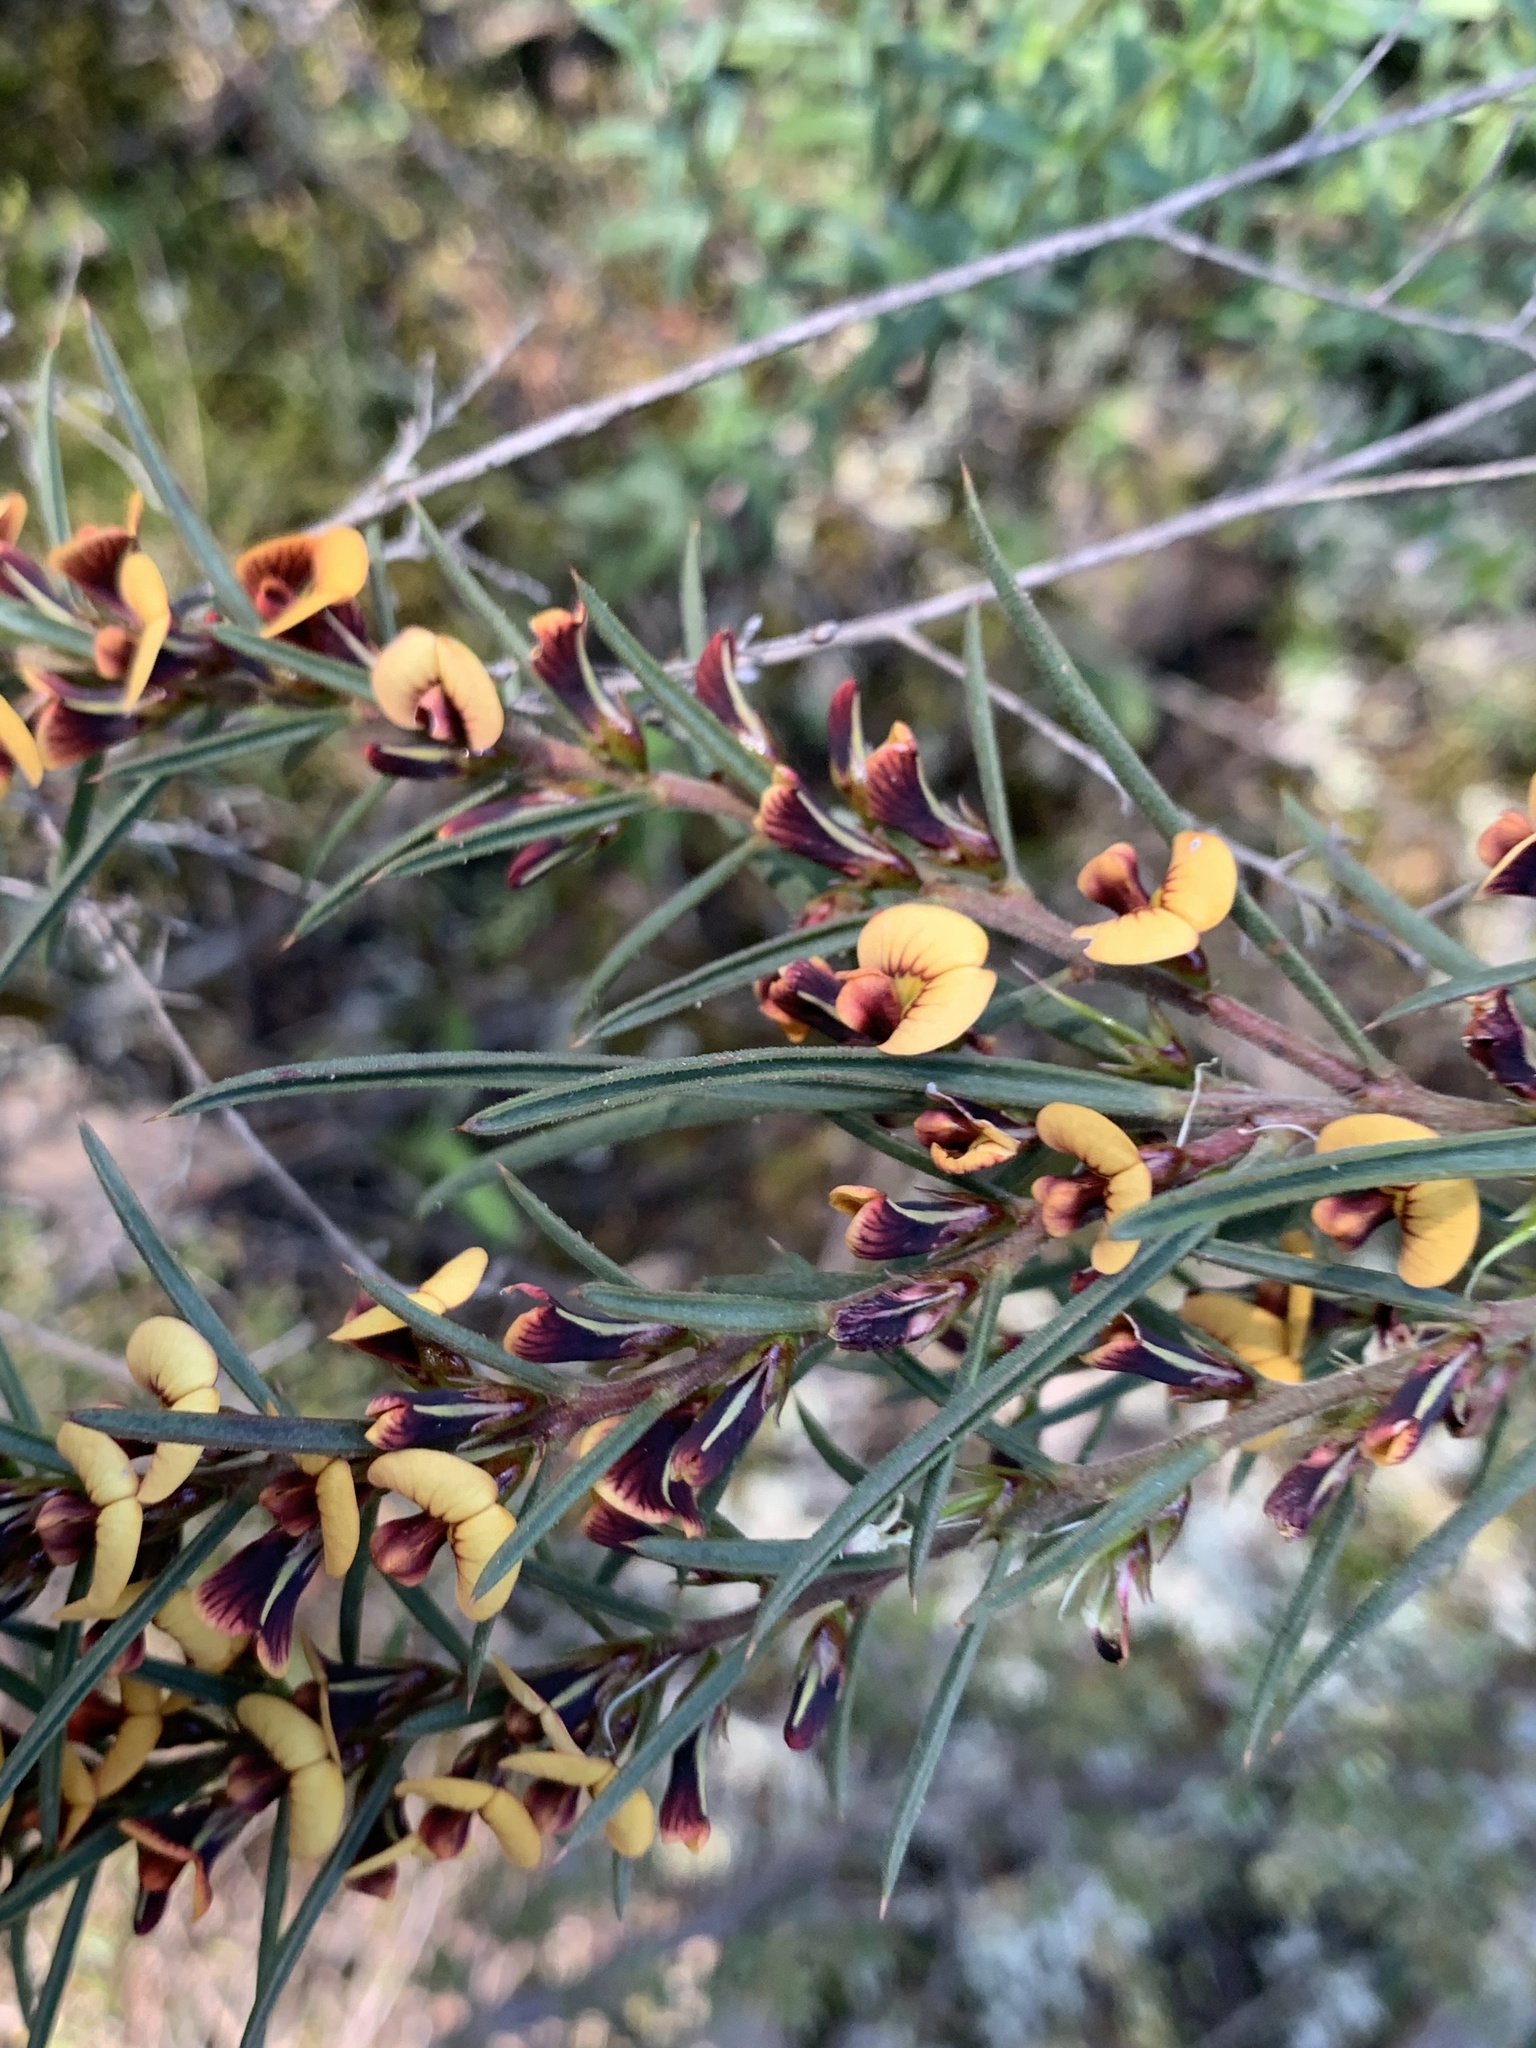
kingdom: Plantae
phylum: Tracheophyta
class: Magnoliopsida
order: Fabales
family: Fabaceae
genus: Daviesia
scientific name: Daviesia acicularis
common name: Sandplain bitter-pea
